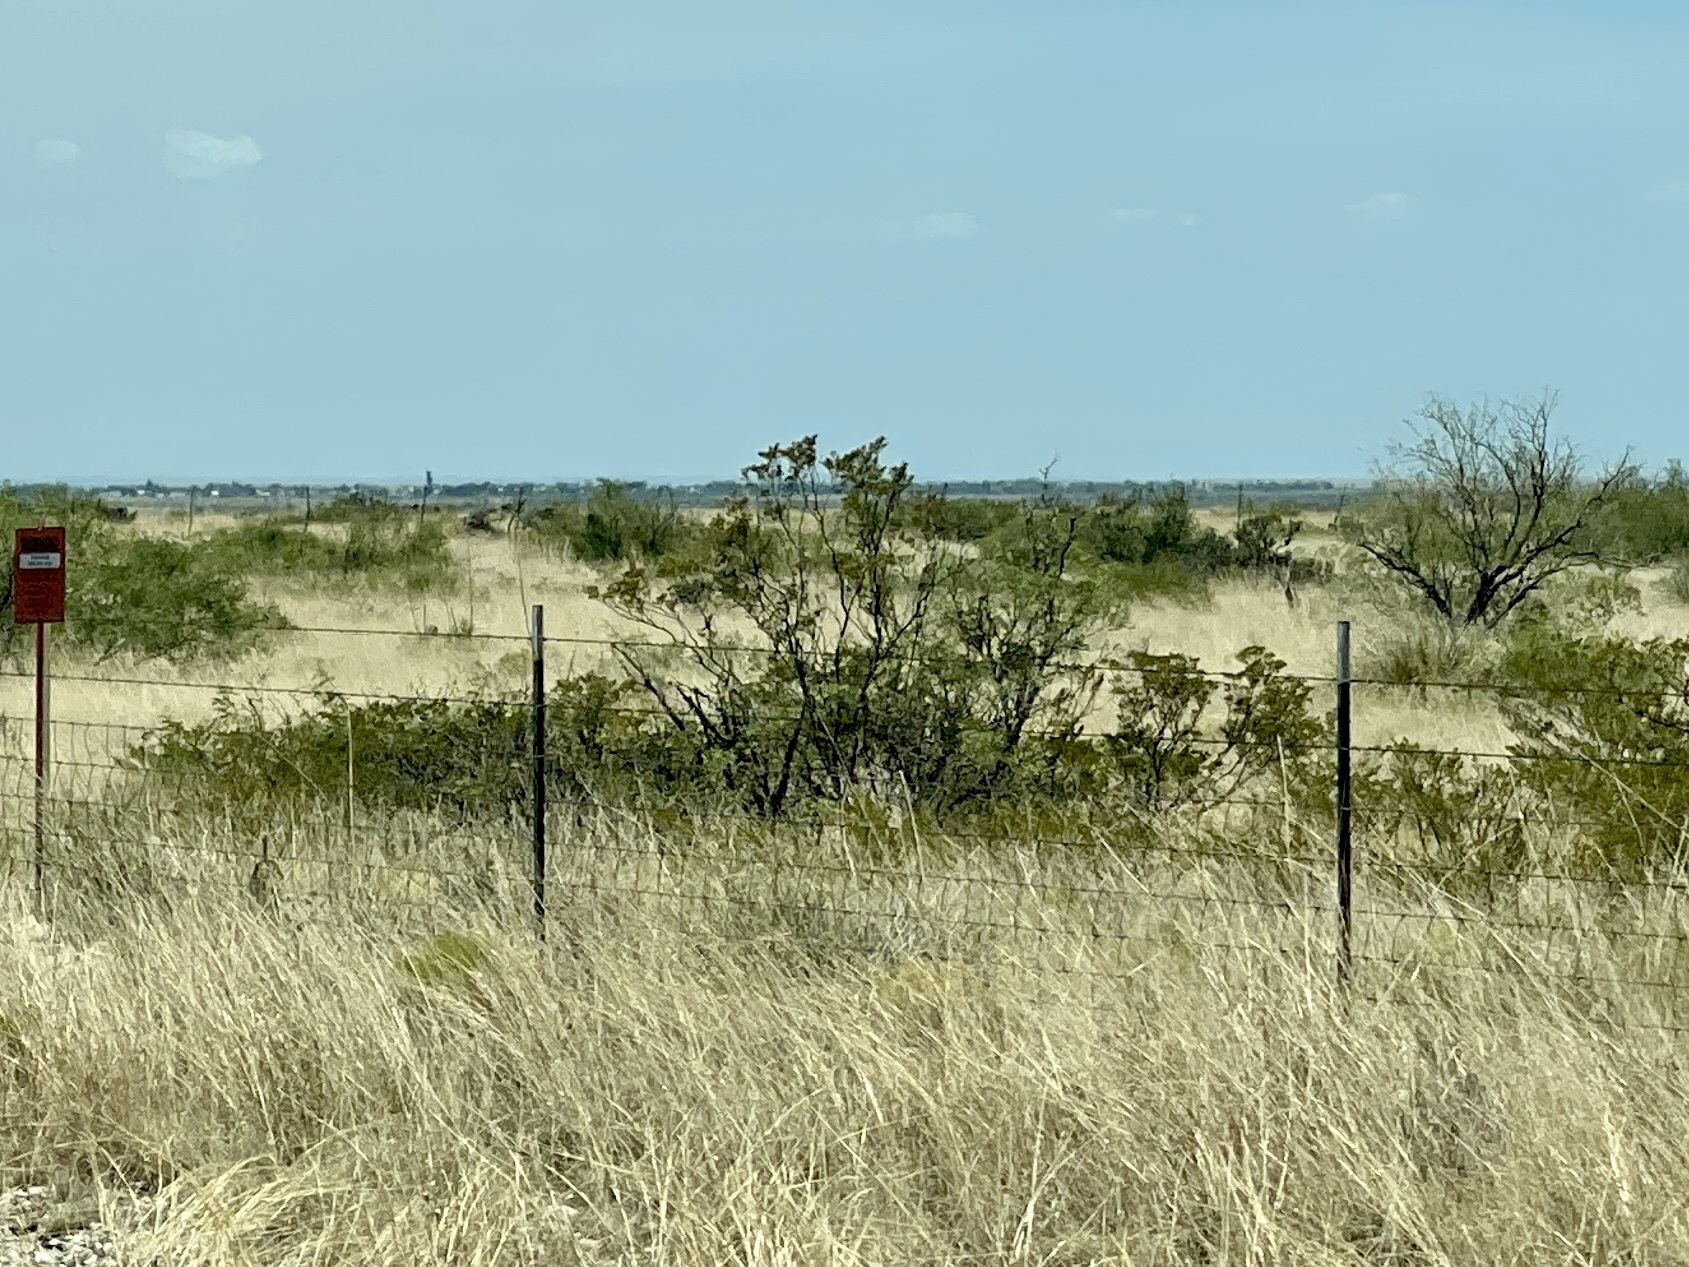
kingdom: Plantae
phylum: Tracheophyta
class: Magnoliopsida
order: Zygophyllales
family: Zygophyllaceae
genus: Larrea
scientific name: Larrea tridentata
